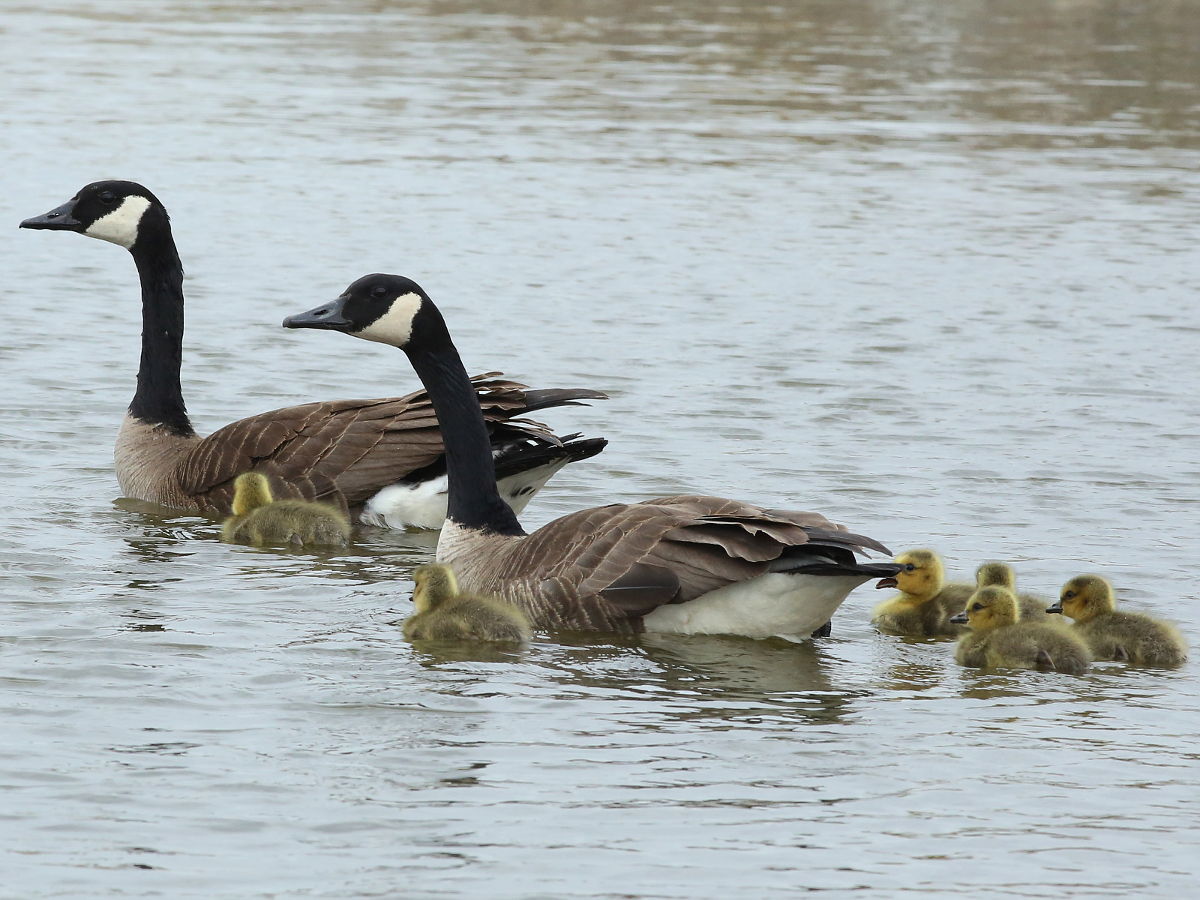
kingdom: Animalia
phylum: Chordata
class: Aves
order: Anseriformes
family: Anatidae
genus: Branta
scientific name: Branta canadensis
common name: Canada goose
